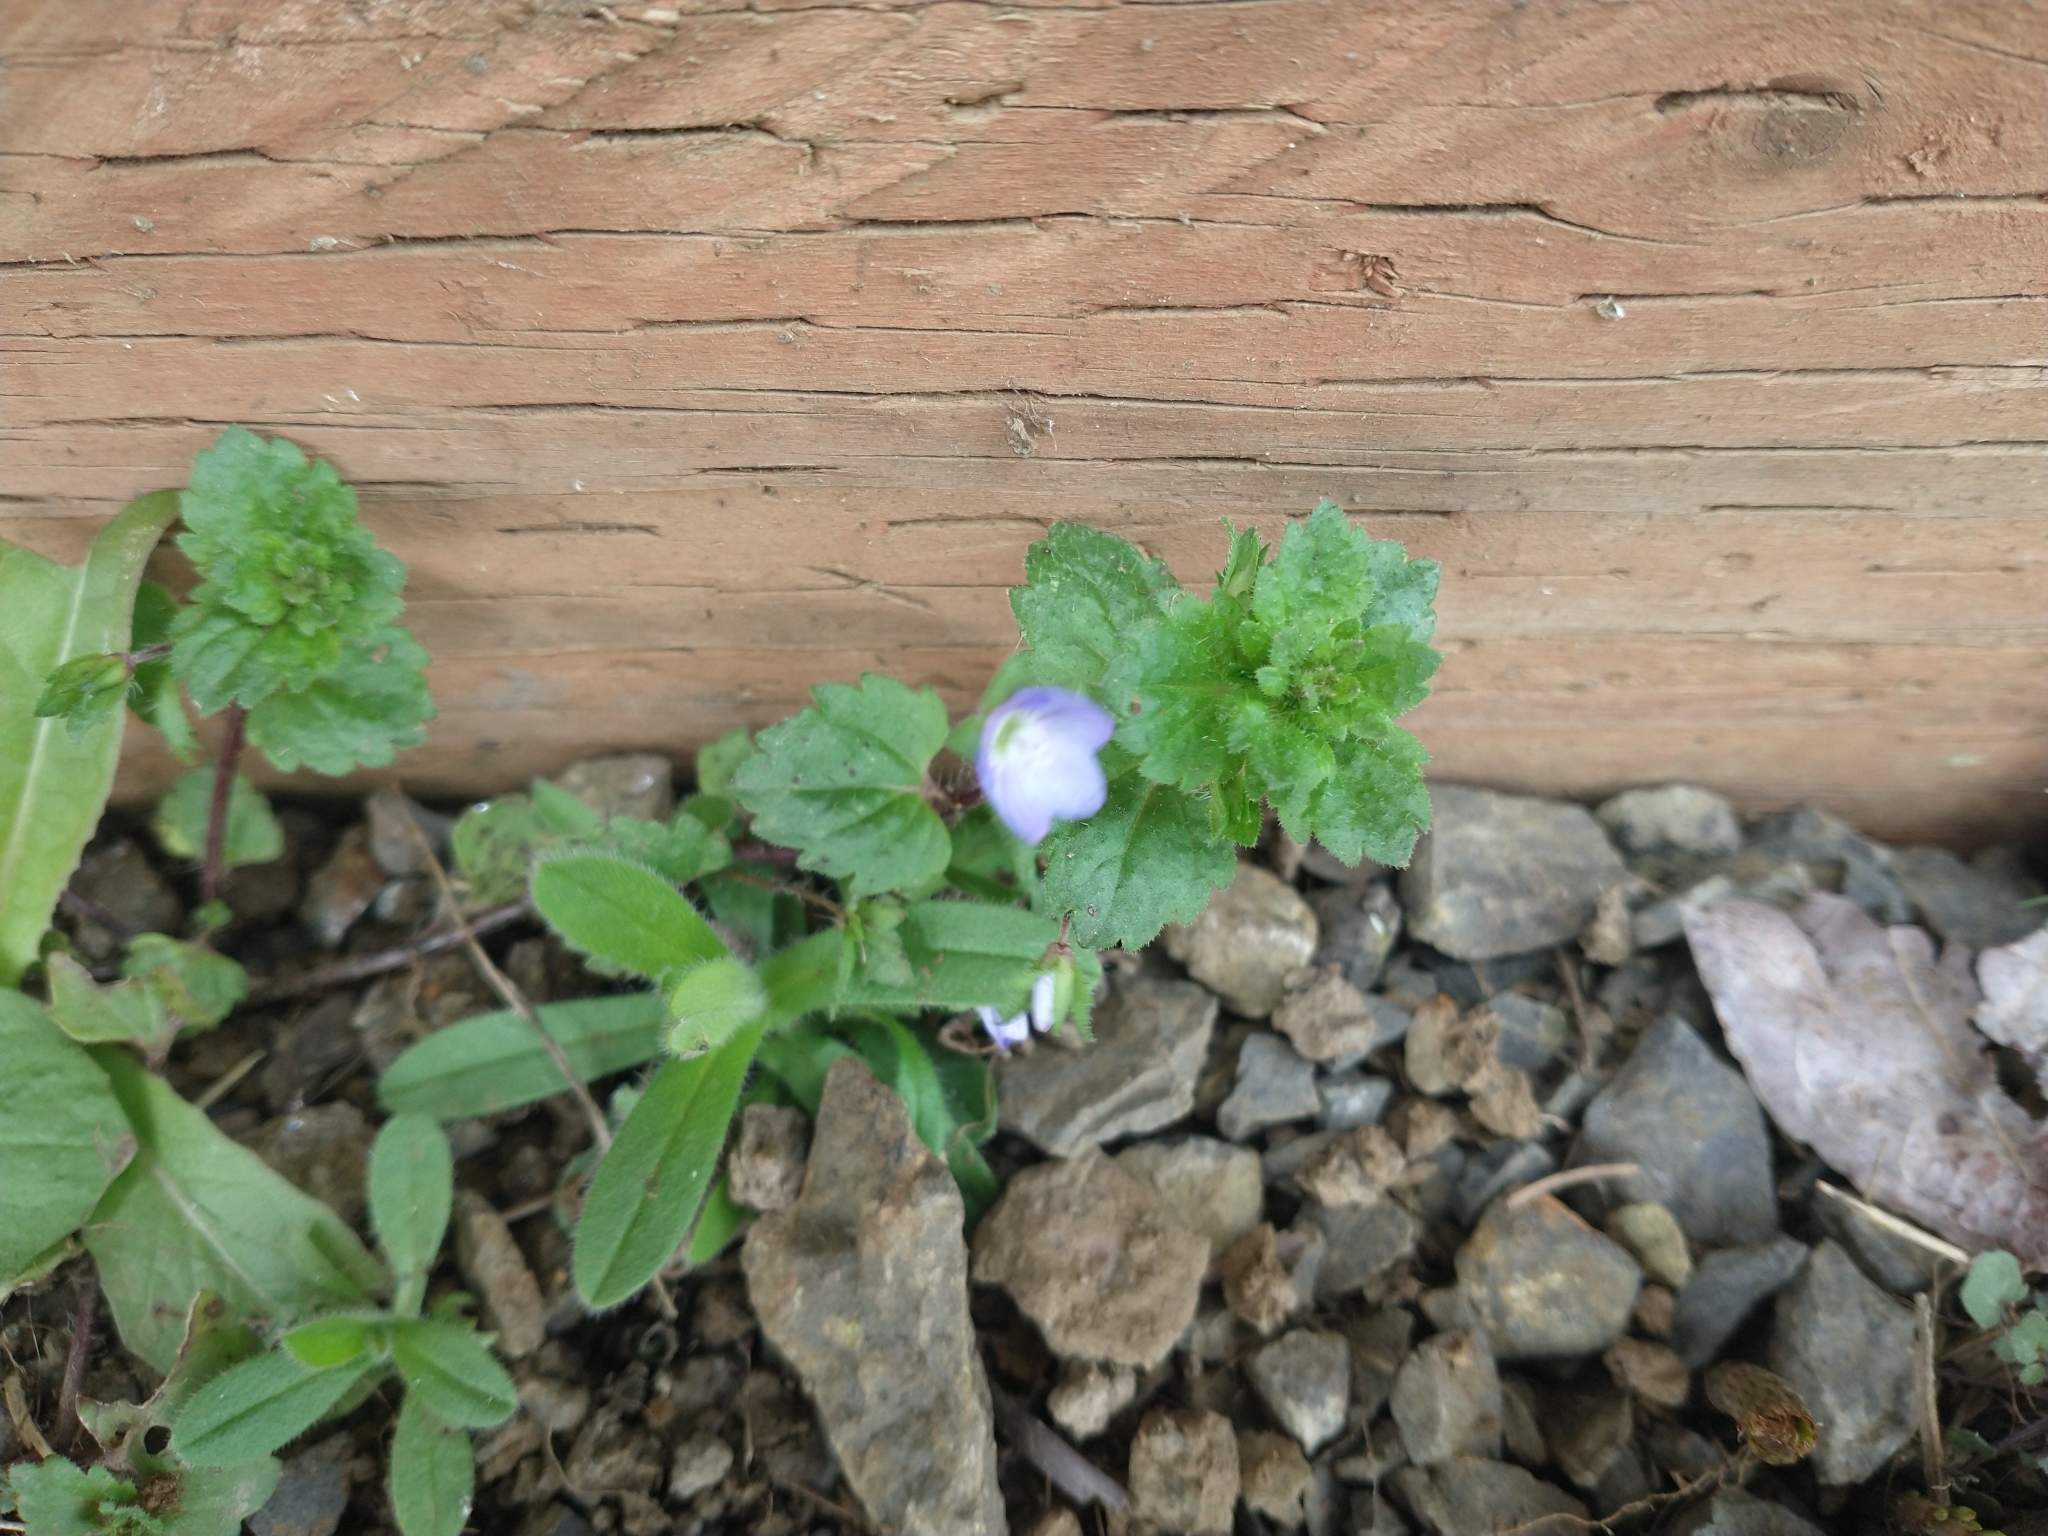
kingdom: Plantae
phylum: Tracheophyta
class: Magnoliopsida
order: Lamiales
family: Plantaginaceae
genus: Veronica
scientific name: Veronica persica
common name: Common field-speedwell
